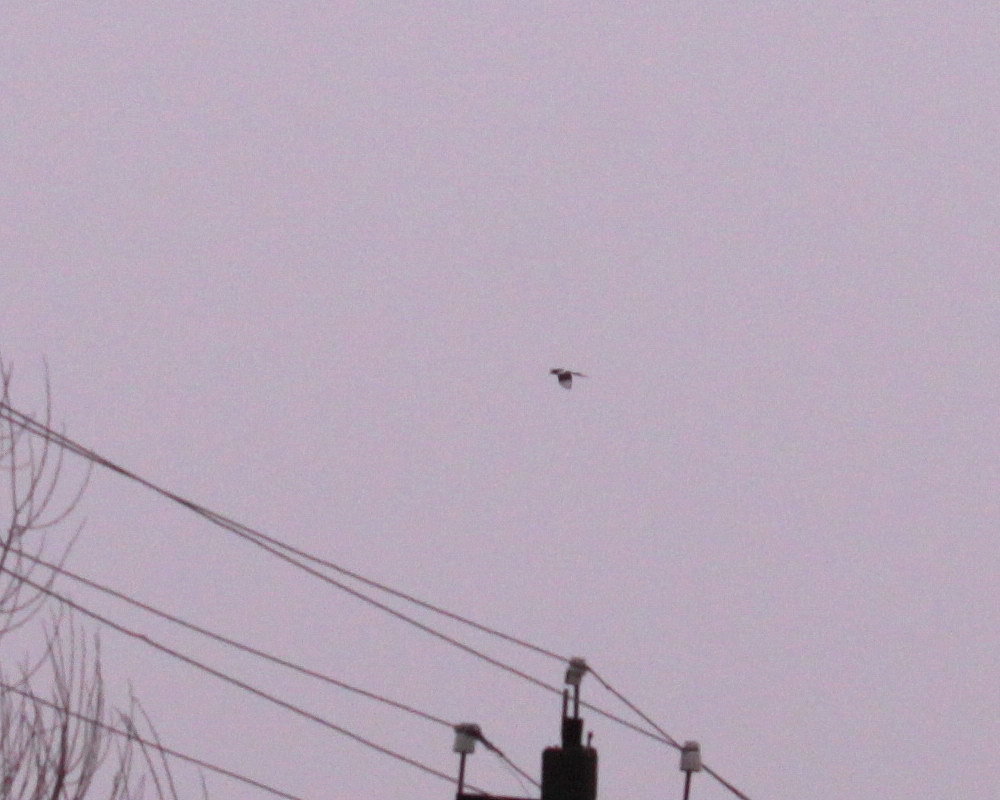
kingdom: Animalia
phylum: Chordata
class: Aves
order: Passeriformes
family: Corvidae
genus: Pica
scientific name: Pica pica
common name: Eurasian magpie
